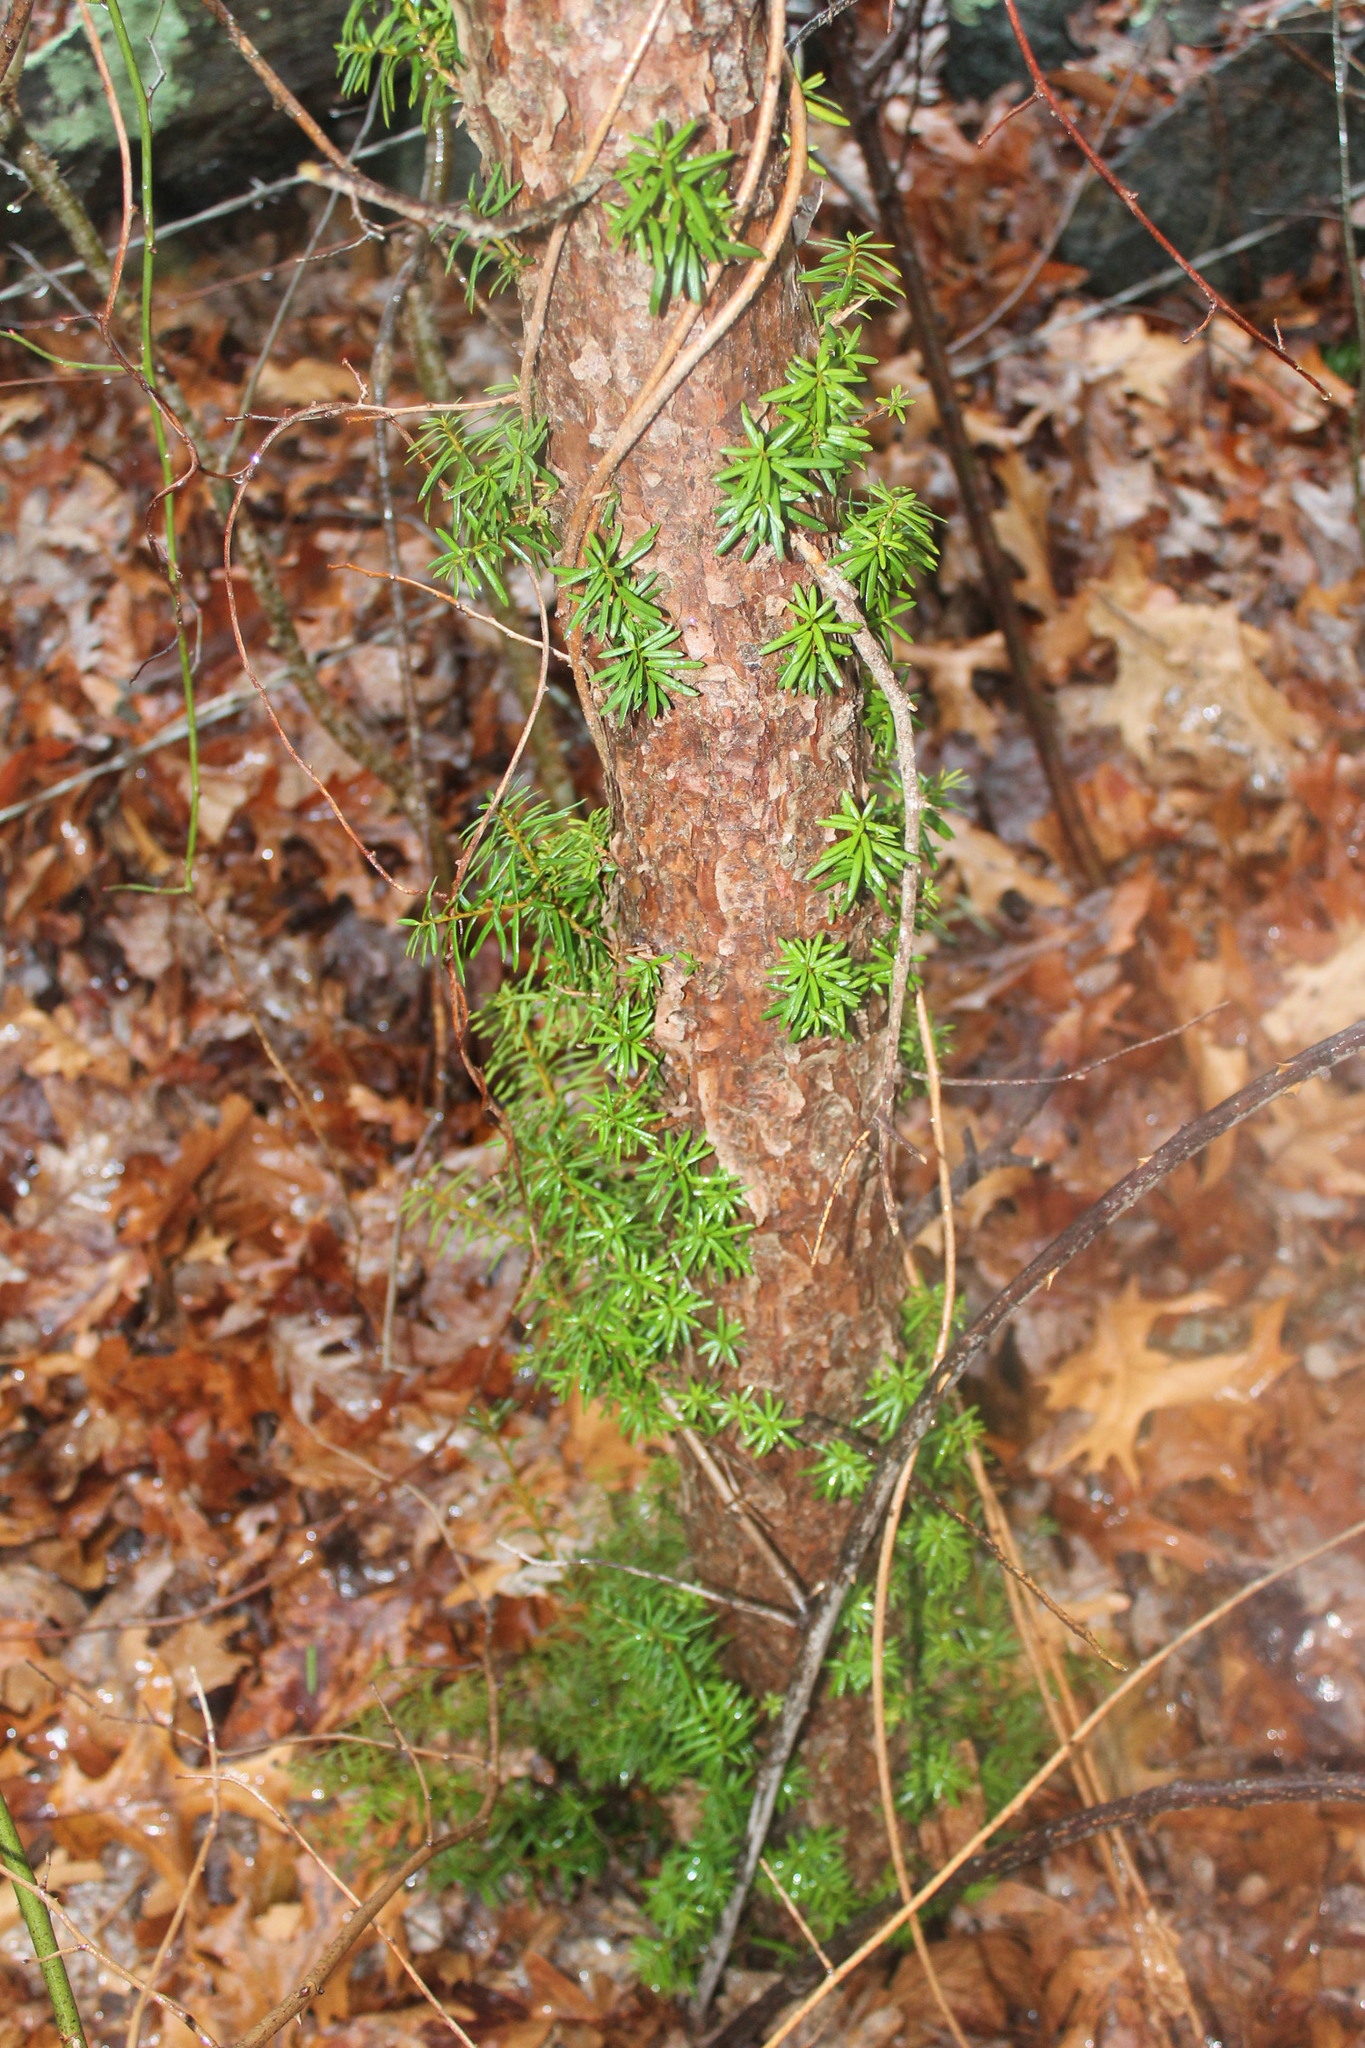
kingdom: Plantae
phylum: Tracheophyta
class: Pinopsida
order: Pinales
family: Taxaceae
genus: Taxus
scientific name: Taxus baccata
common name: Yew
